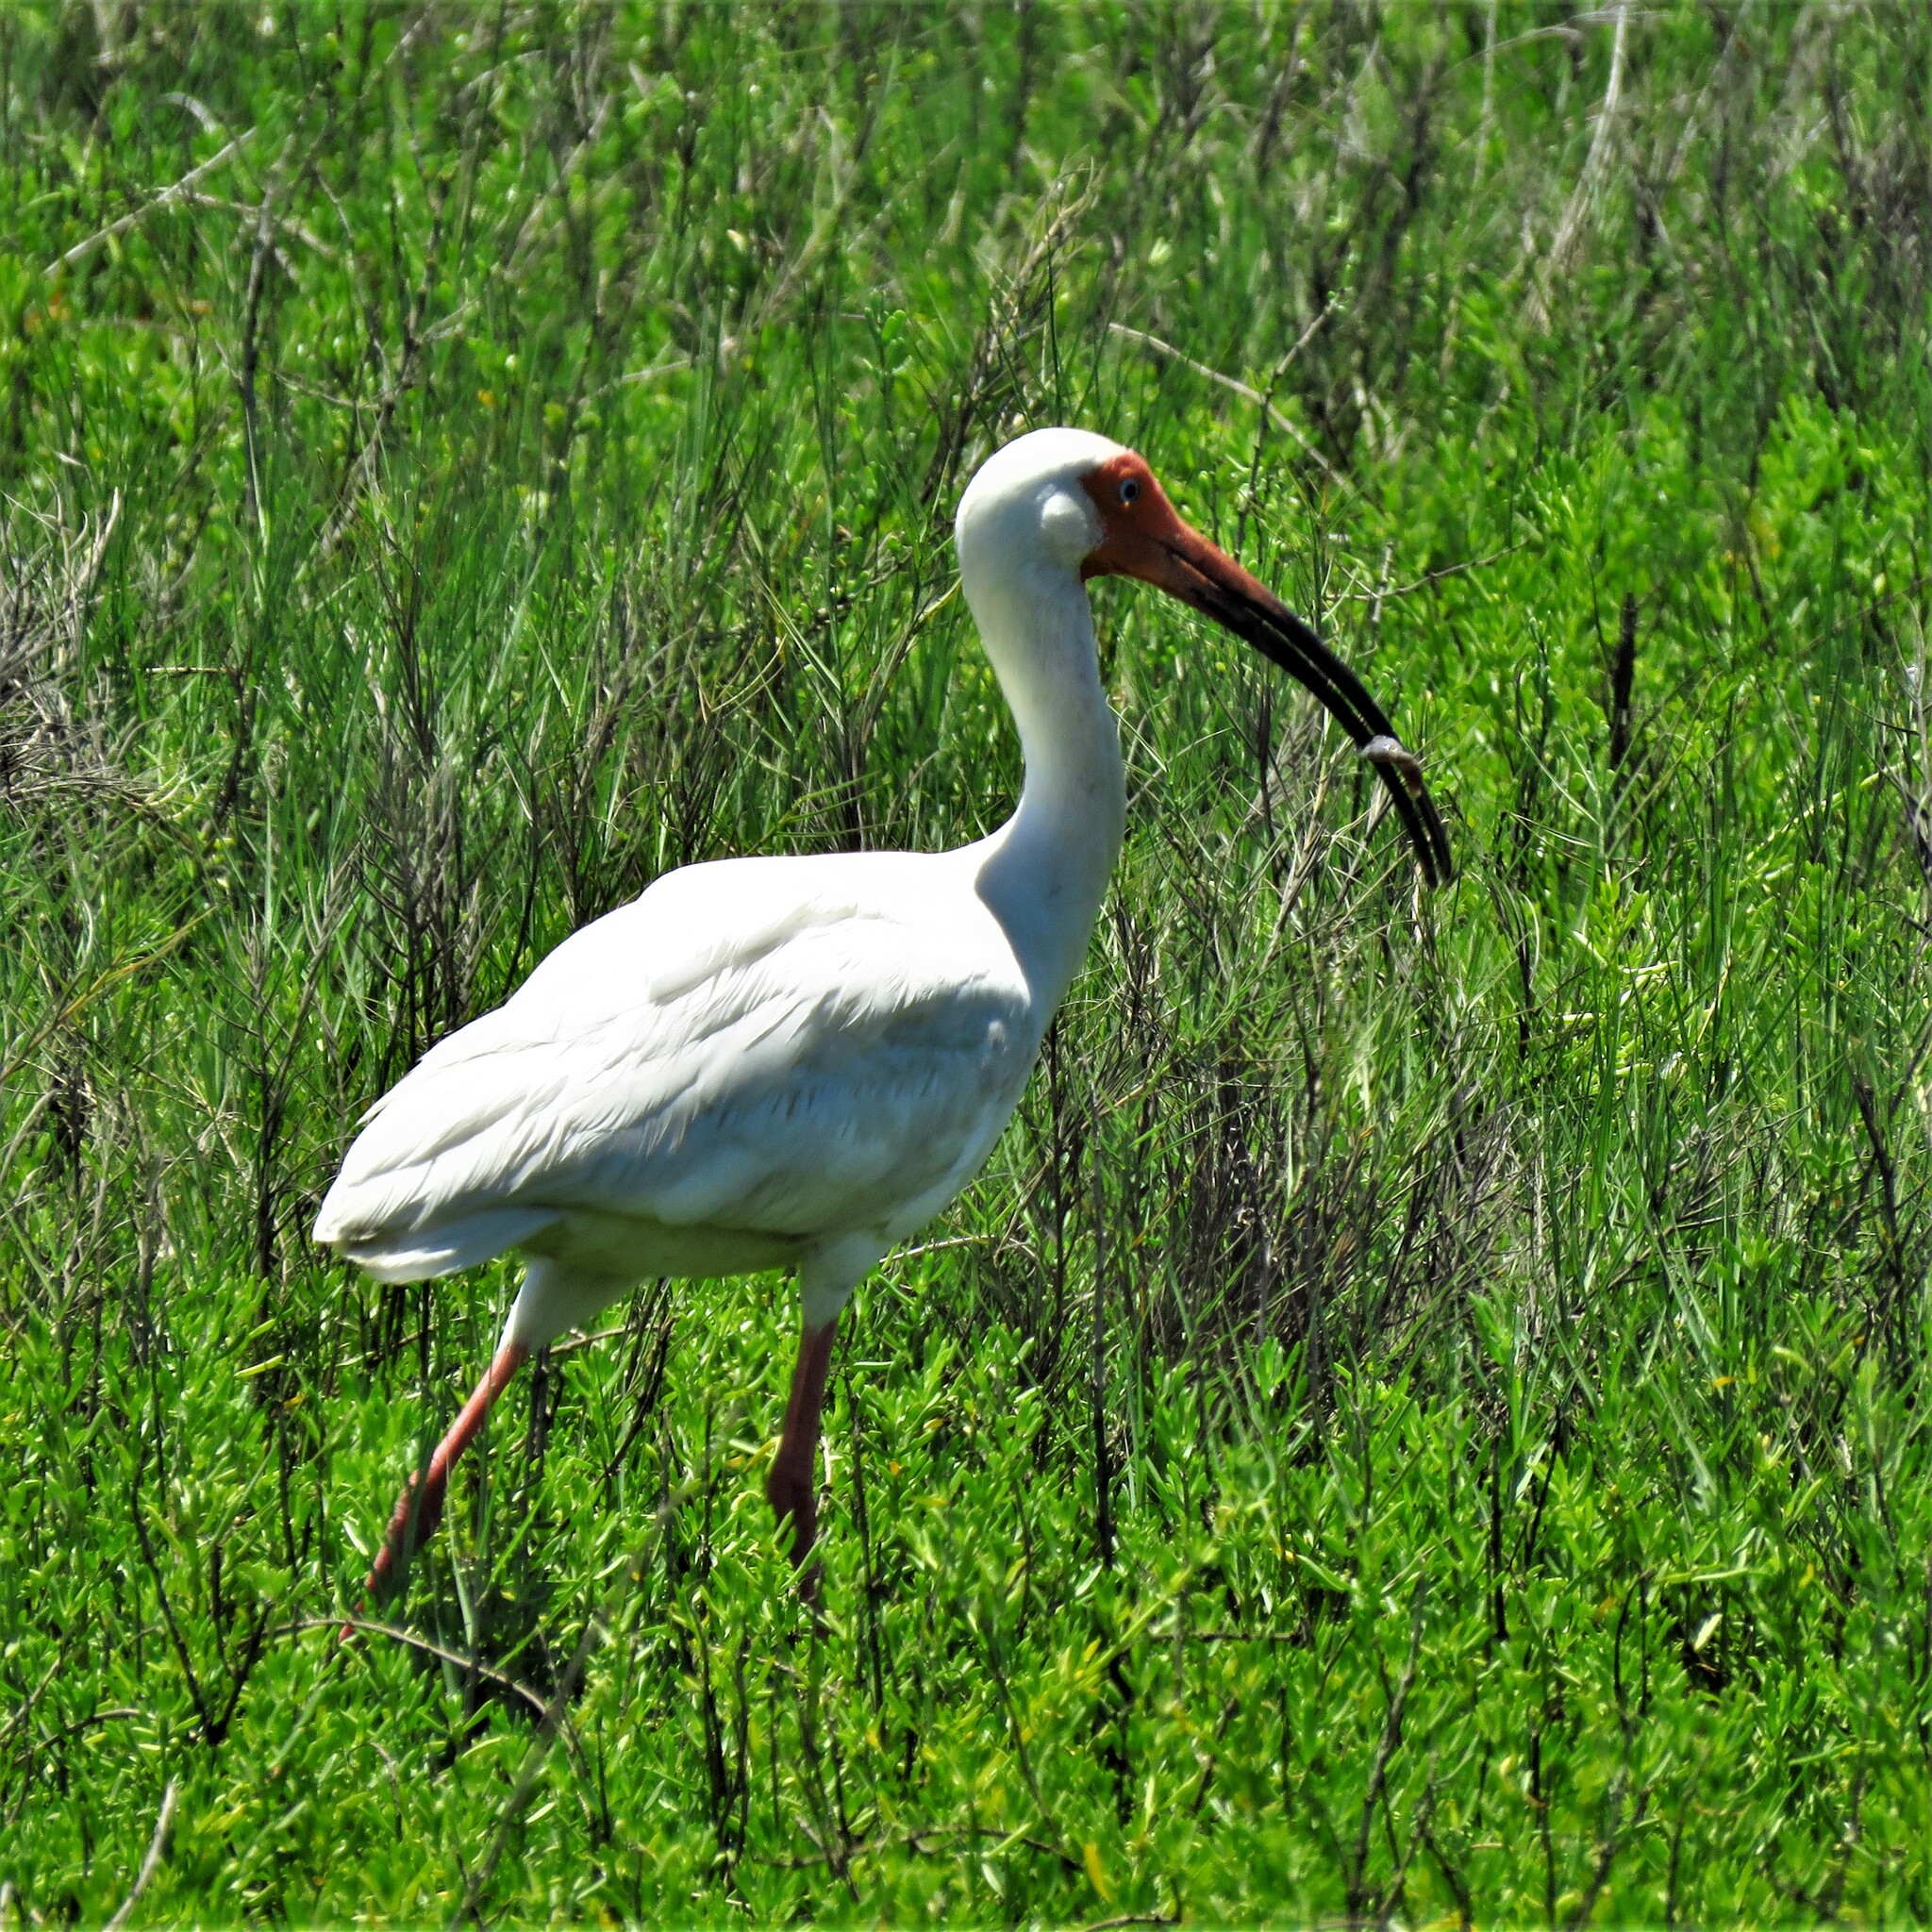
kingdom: Animalia
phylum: Chordata
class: Aves
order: Pelecaniformes
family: Threskiornithidae
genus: Eudocimus
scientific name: Eudocimus albus
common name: White ibis
